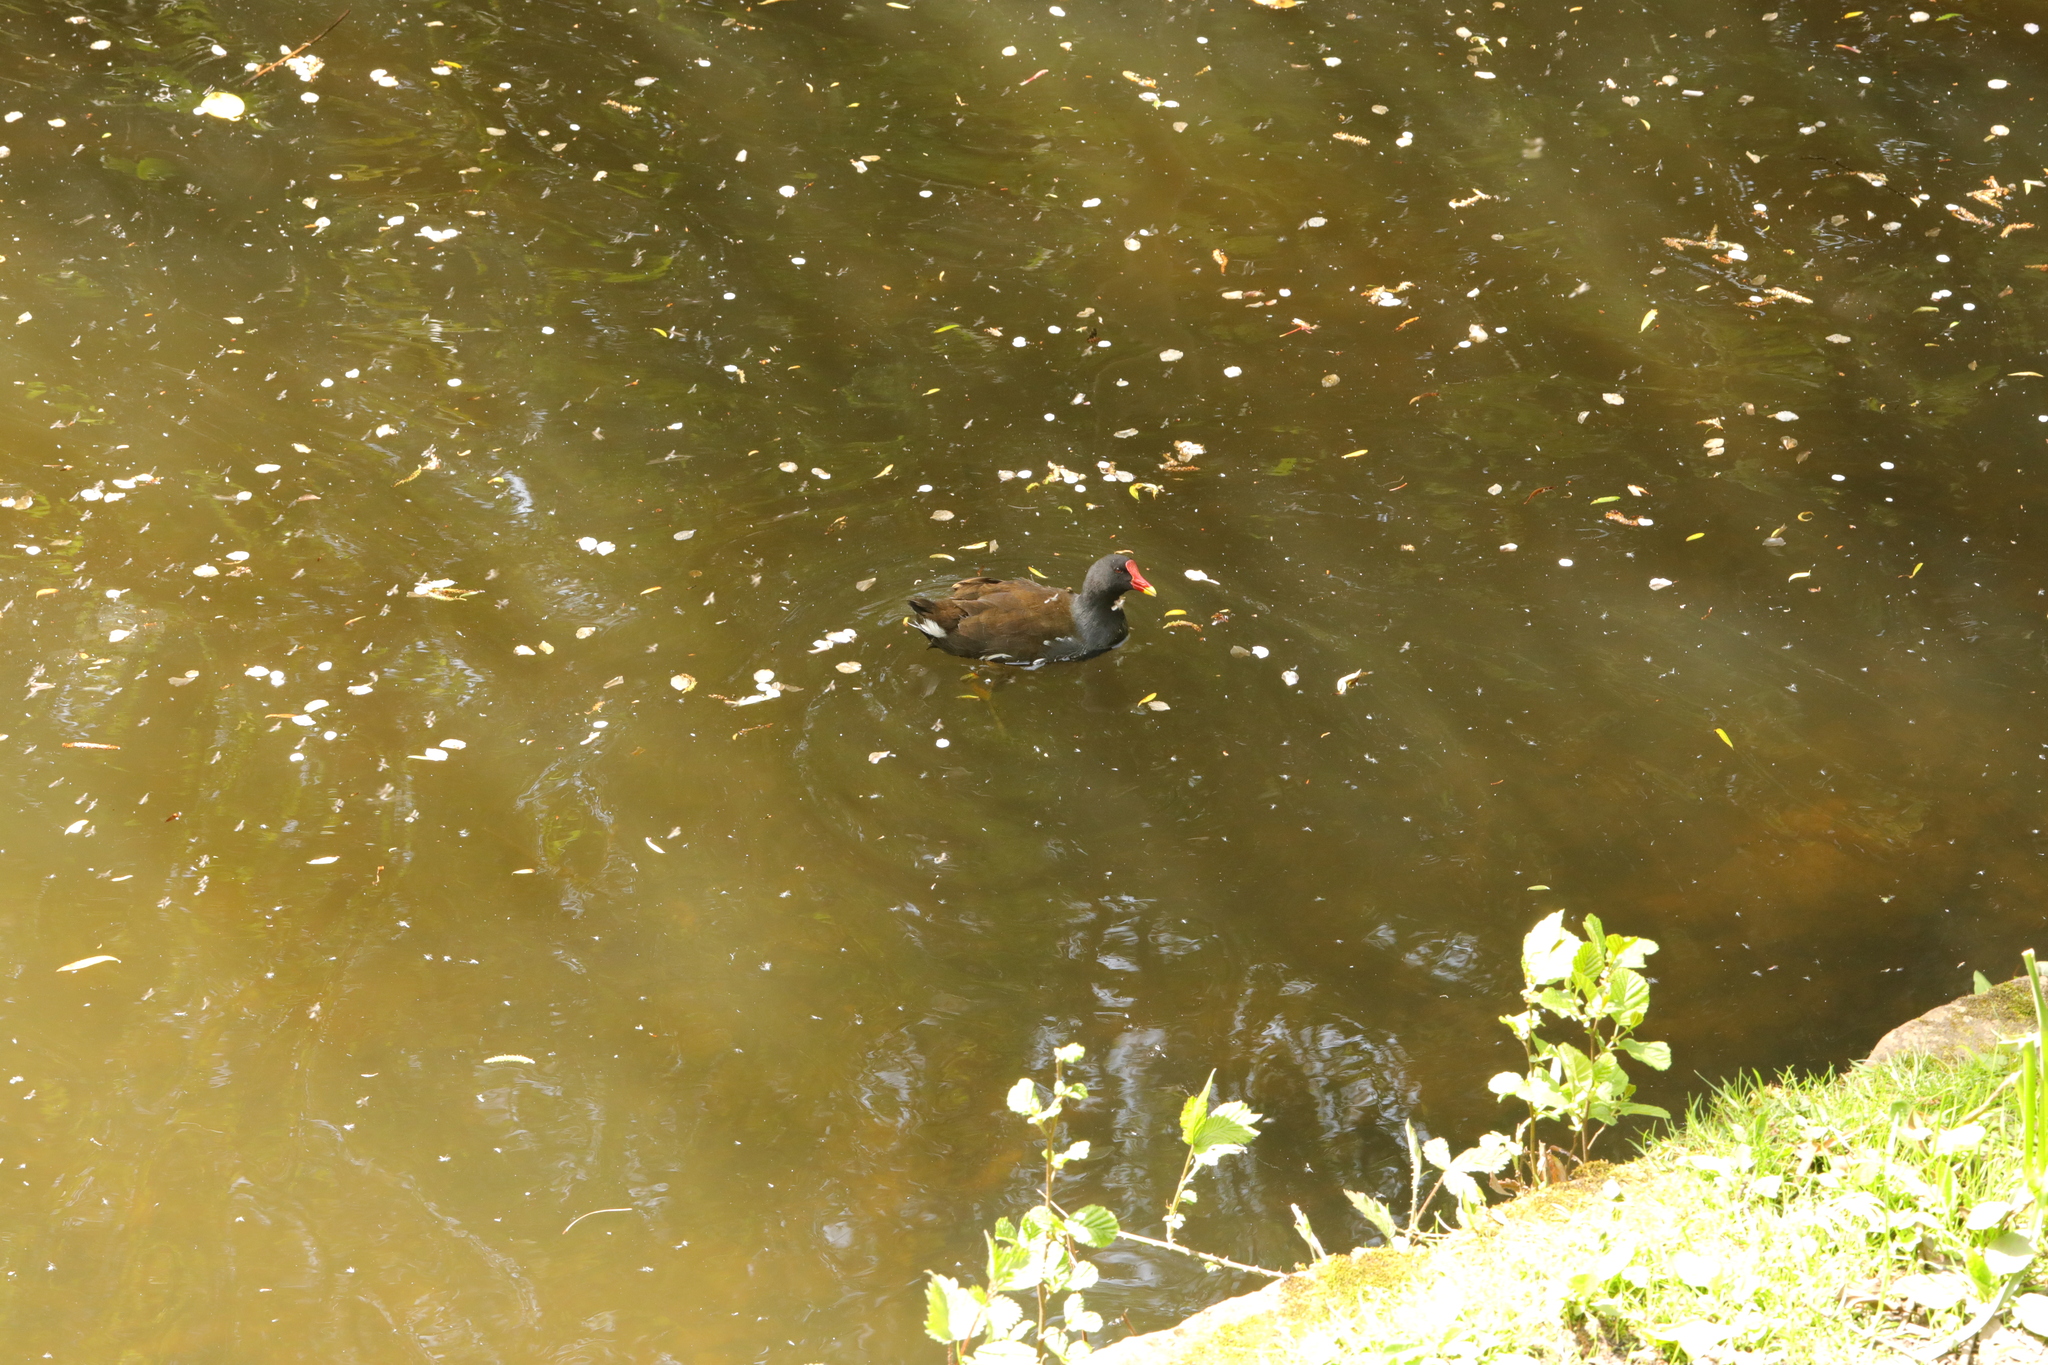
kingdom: Animalia
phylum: Chordata
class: Aves
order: Gruiformes
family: Rallidae
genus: Gallinula
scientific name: Gallinula chloropus
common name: Common moorhen
